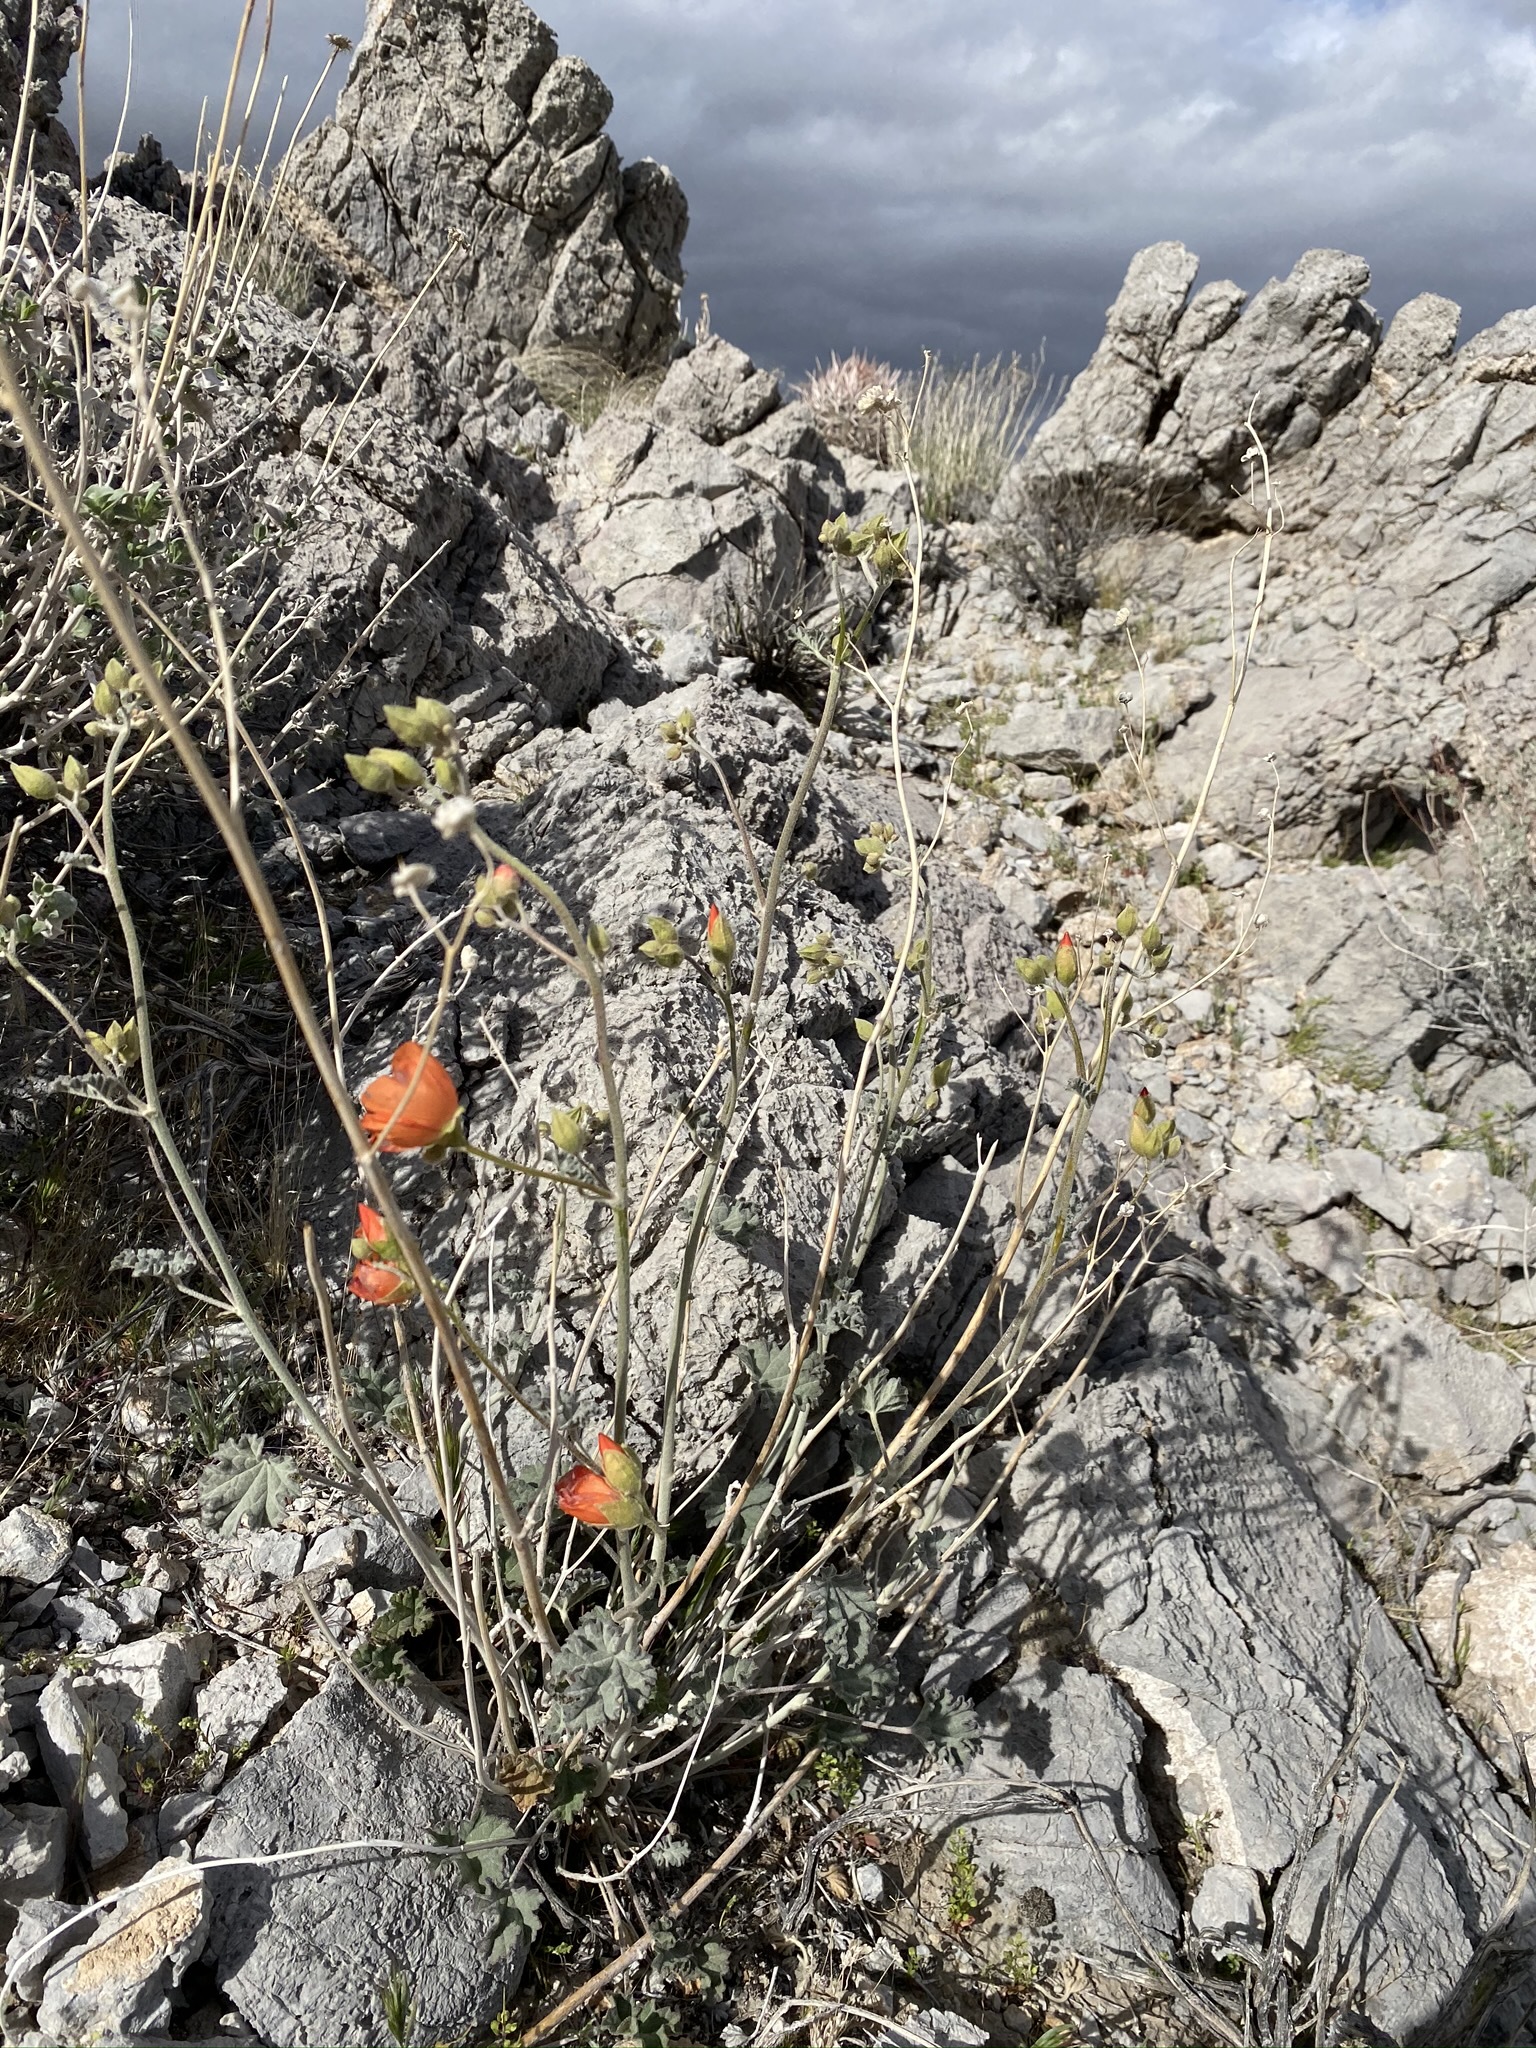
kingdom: Plantae
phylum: Tracheophyta
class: Magnoliopsida
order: Malvales
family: Malvaceae
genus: Sphaeralcea
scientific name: Sphaeralcea ambigua
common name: Apricot globe-mallow
